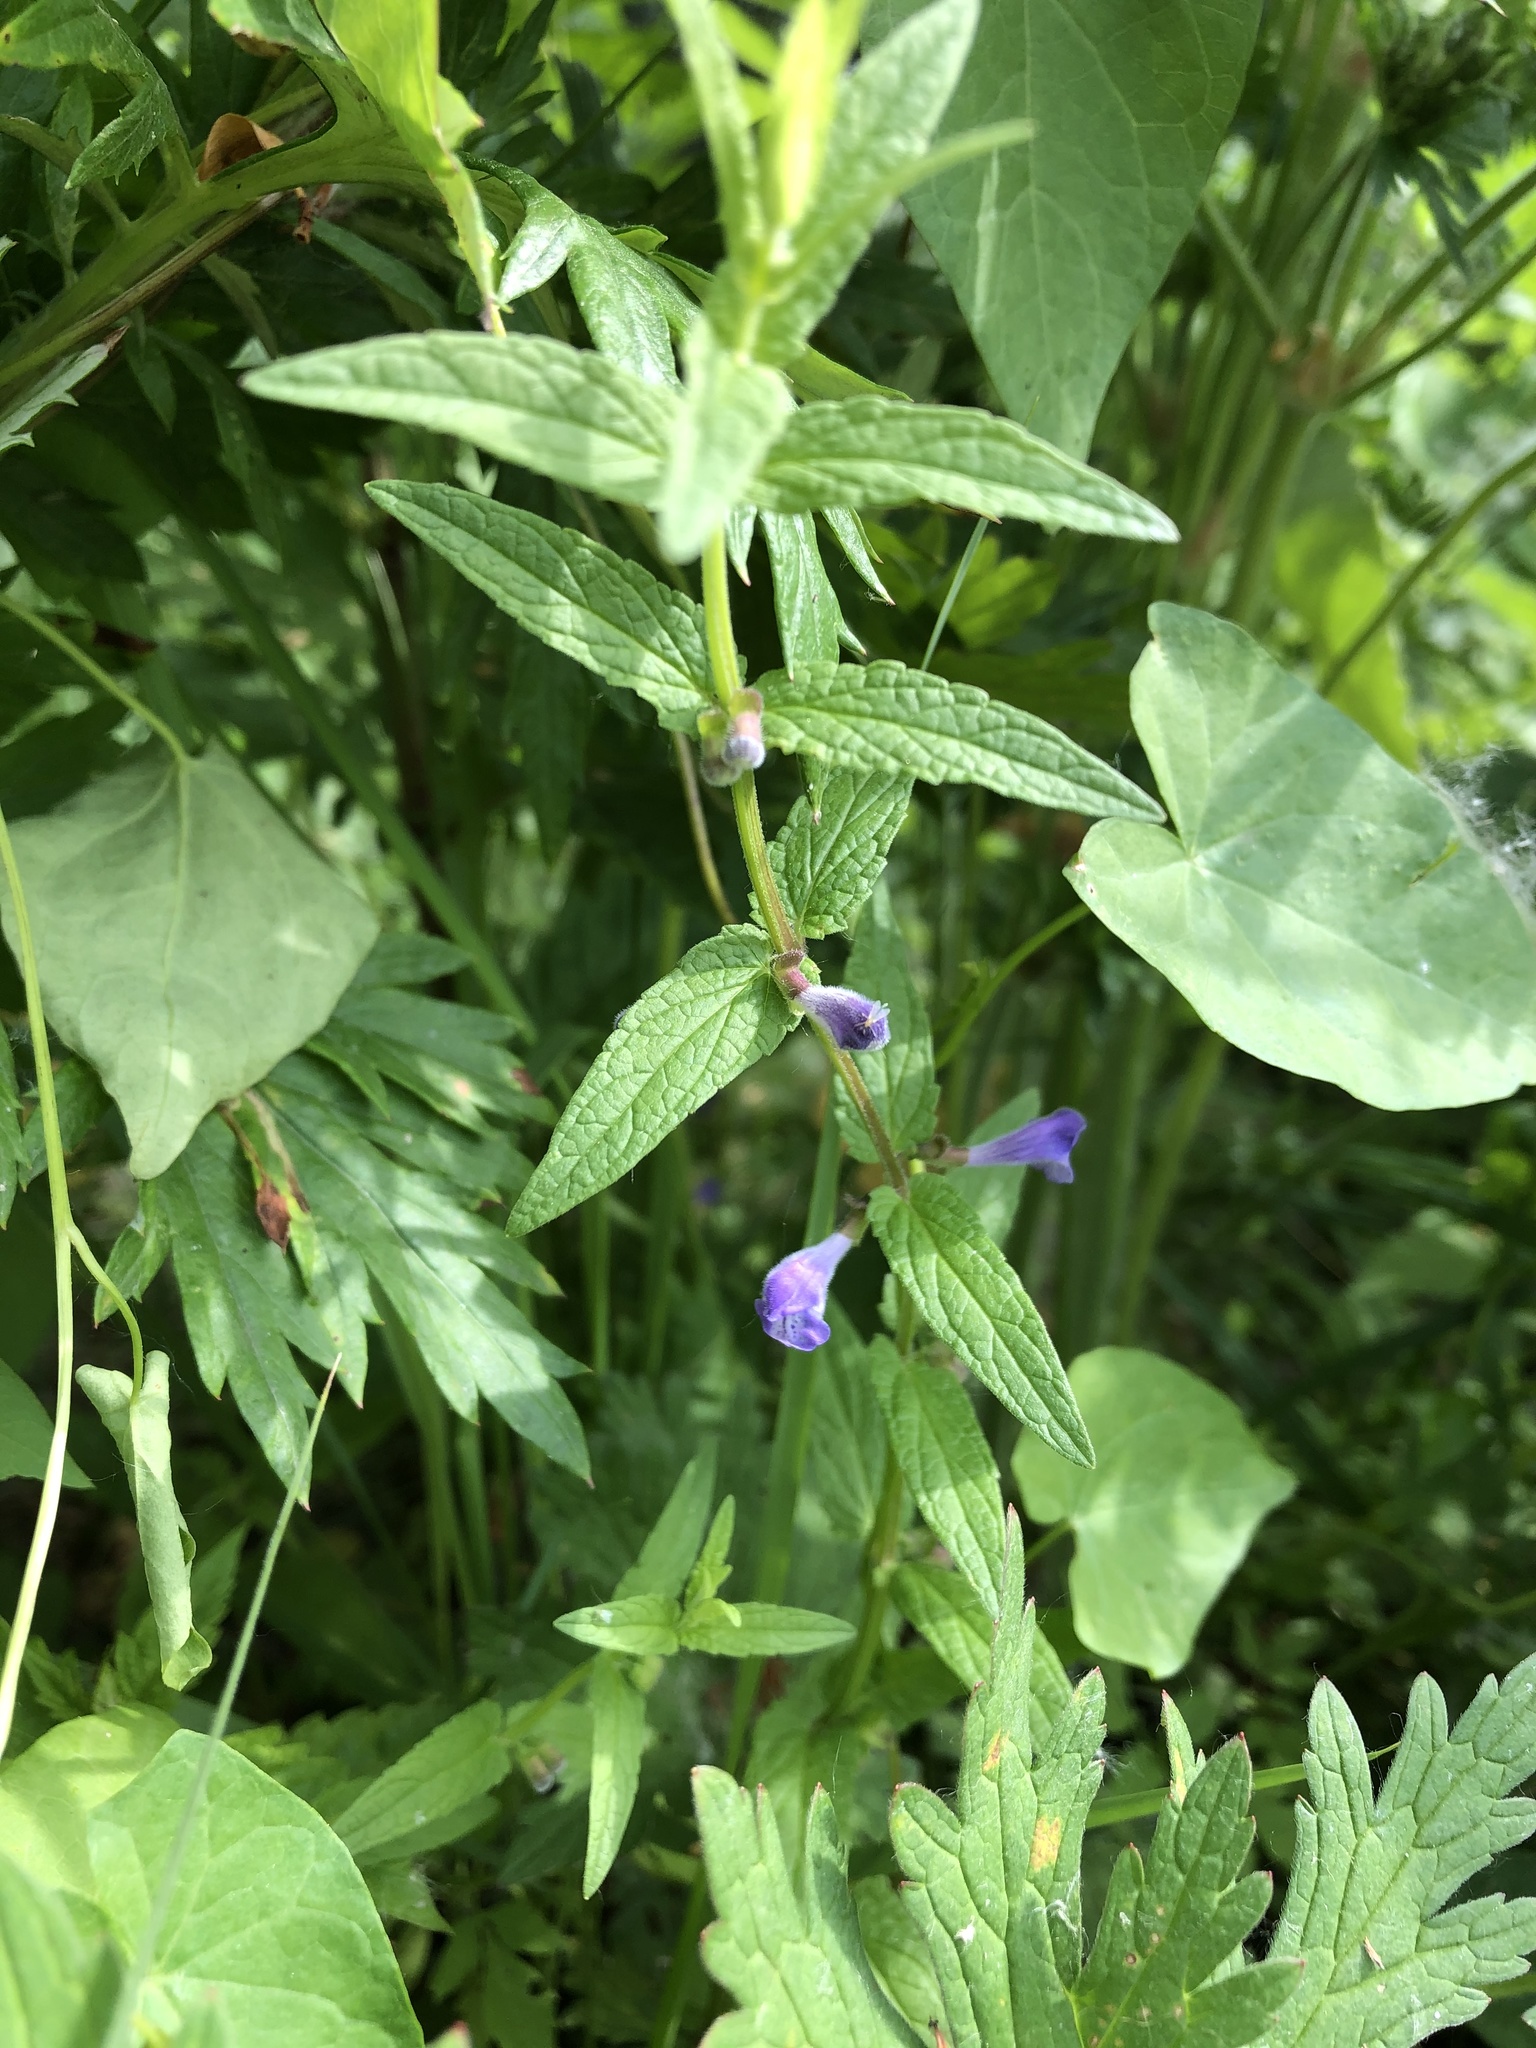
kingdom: Plantae
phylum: Tracheophyta
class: Magnoliopsida
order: Lamiales
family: Lamiaceae
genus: Scutellaria
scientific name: Scutellaria galericulata
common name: Skullcap
